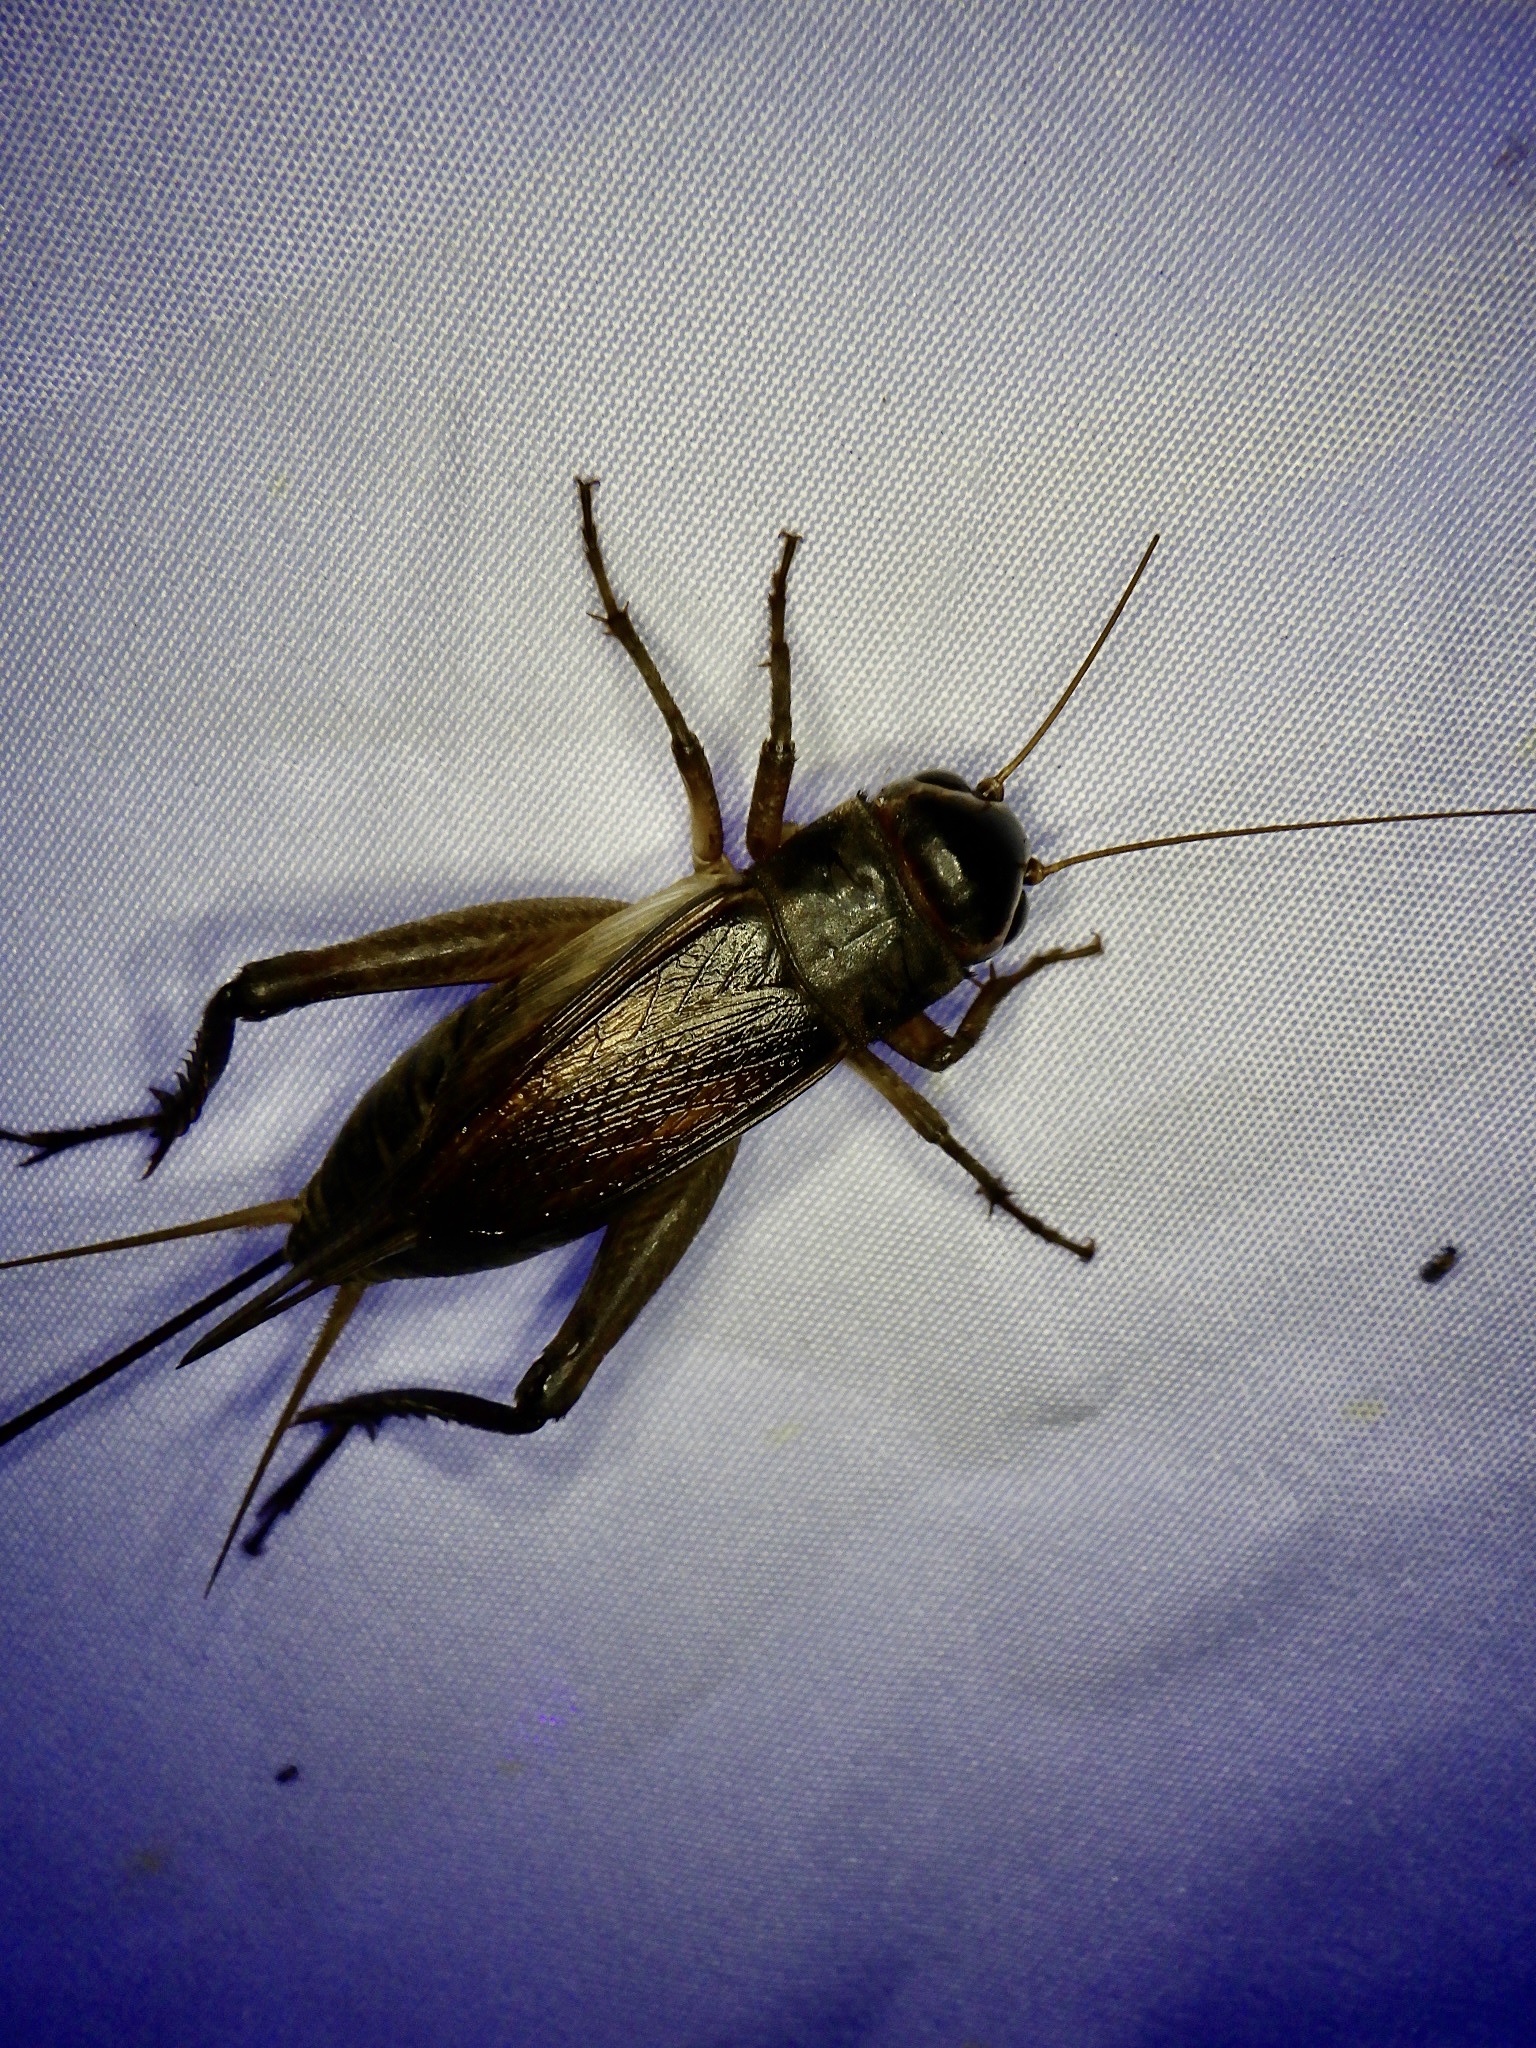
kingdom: Animalia
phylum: Arthropoda
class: Insecta
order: Orthoptera
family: Gryllidae
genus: Teleogryllus
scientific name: Teleogryllus emma
